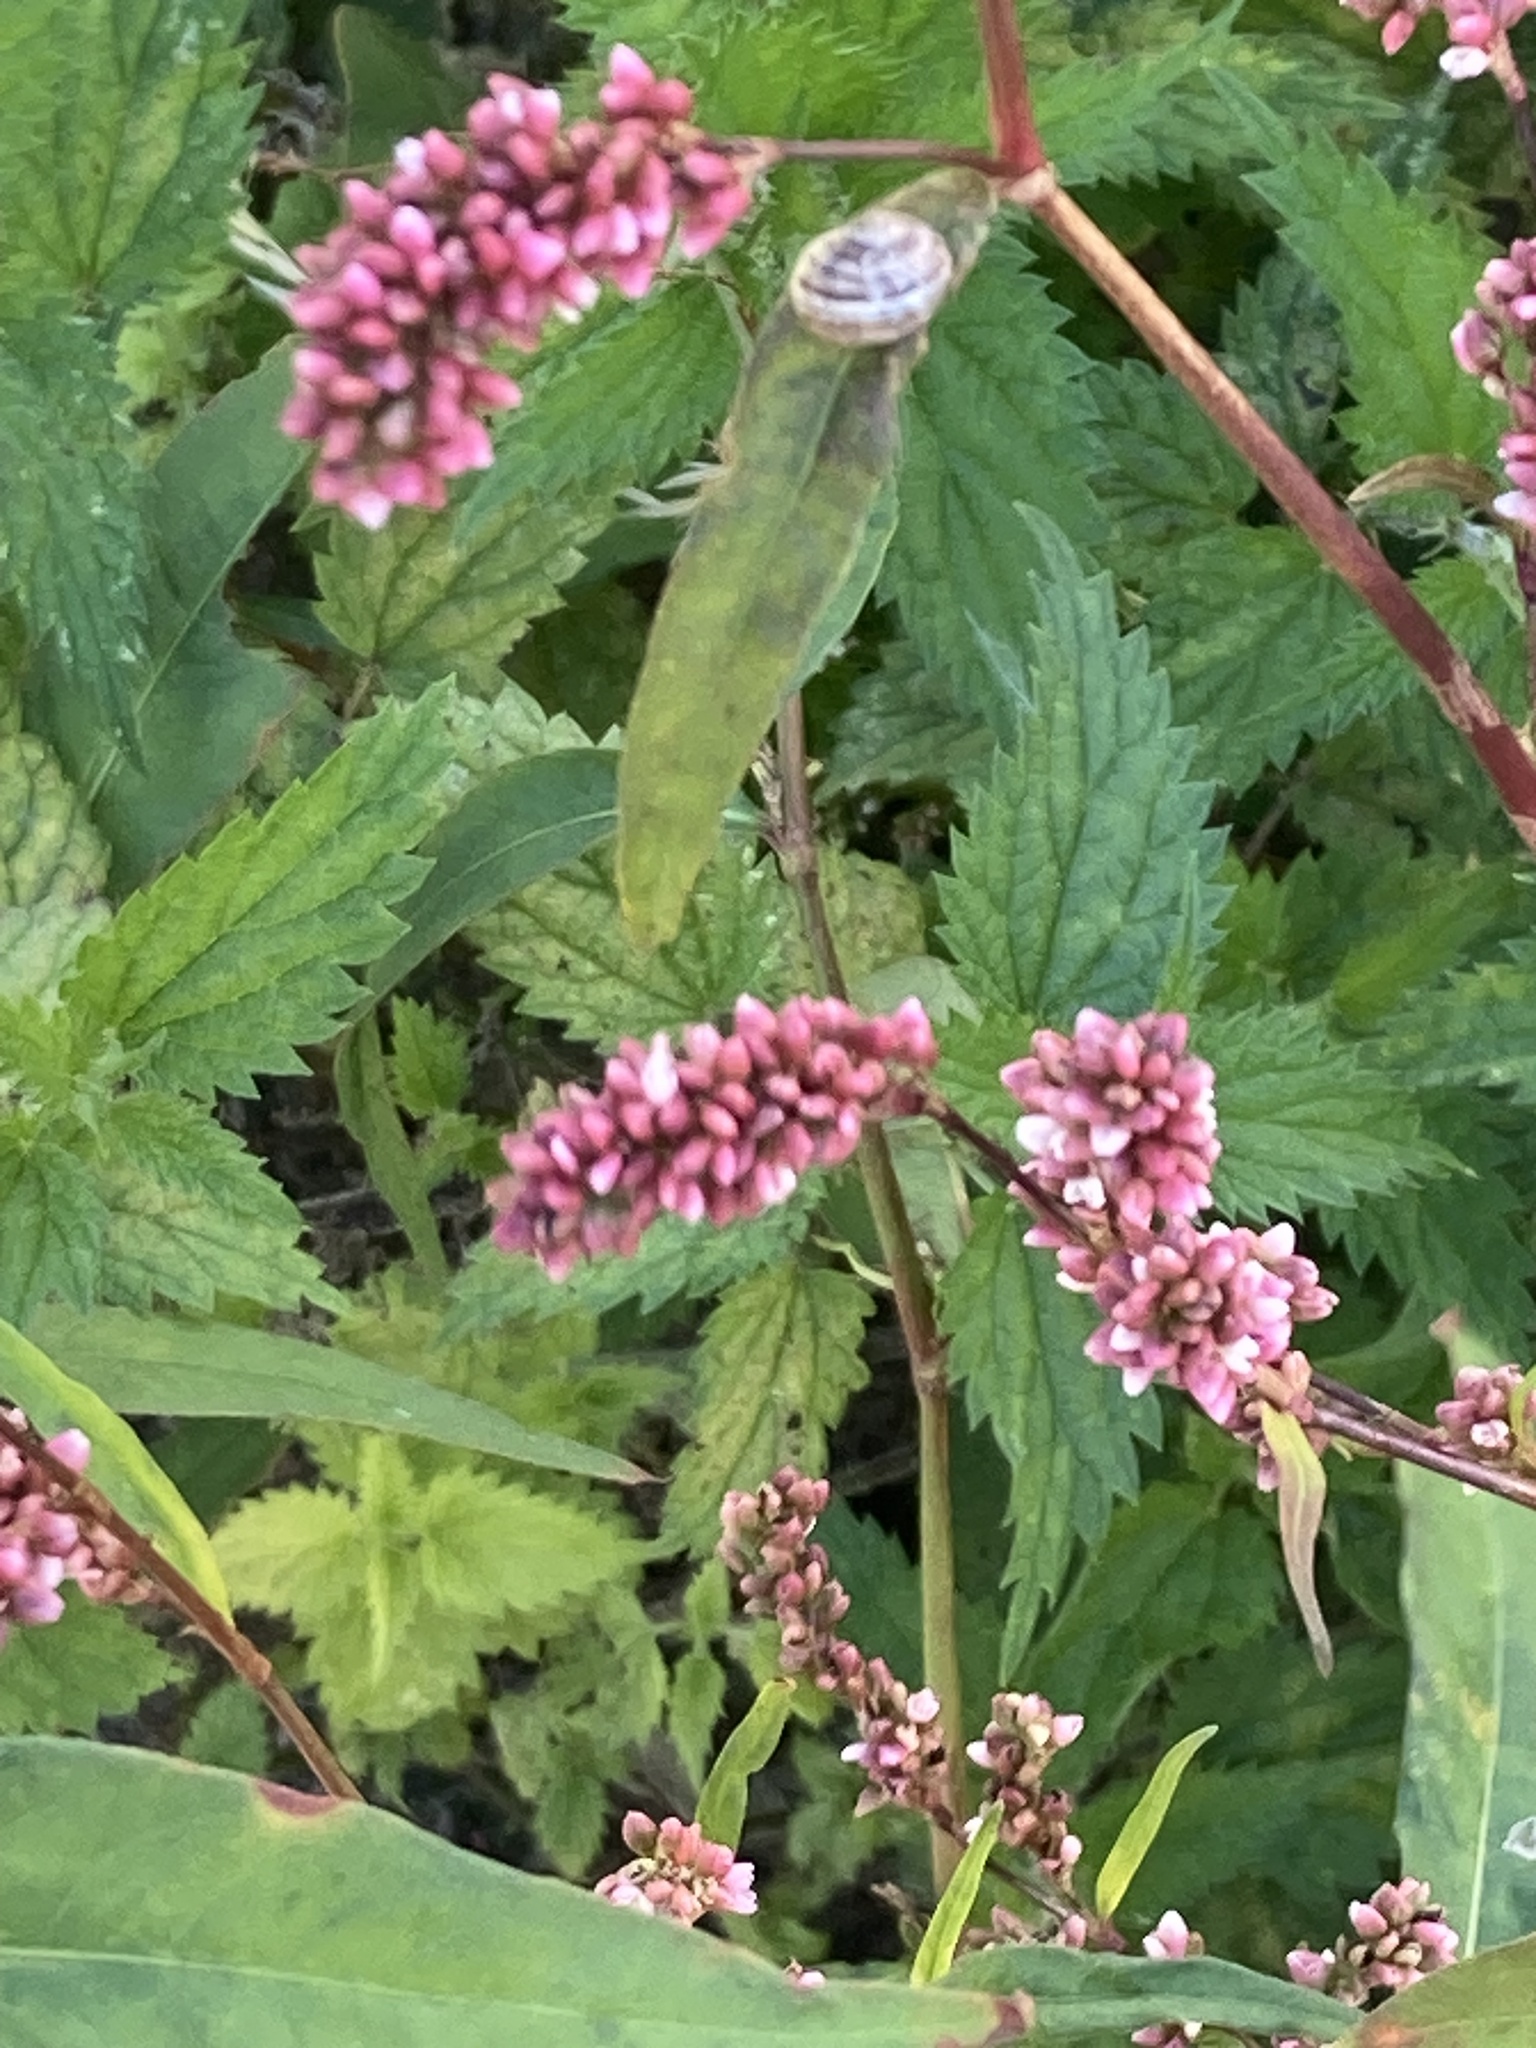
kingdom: Plantae
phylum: Tracheophyta
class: Magnoliopsida
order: Caryophyllales
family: Polygonaceae
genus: Persicaria
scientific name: Persicaria maculosa
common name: Redshank
